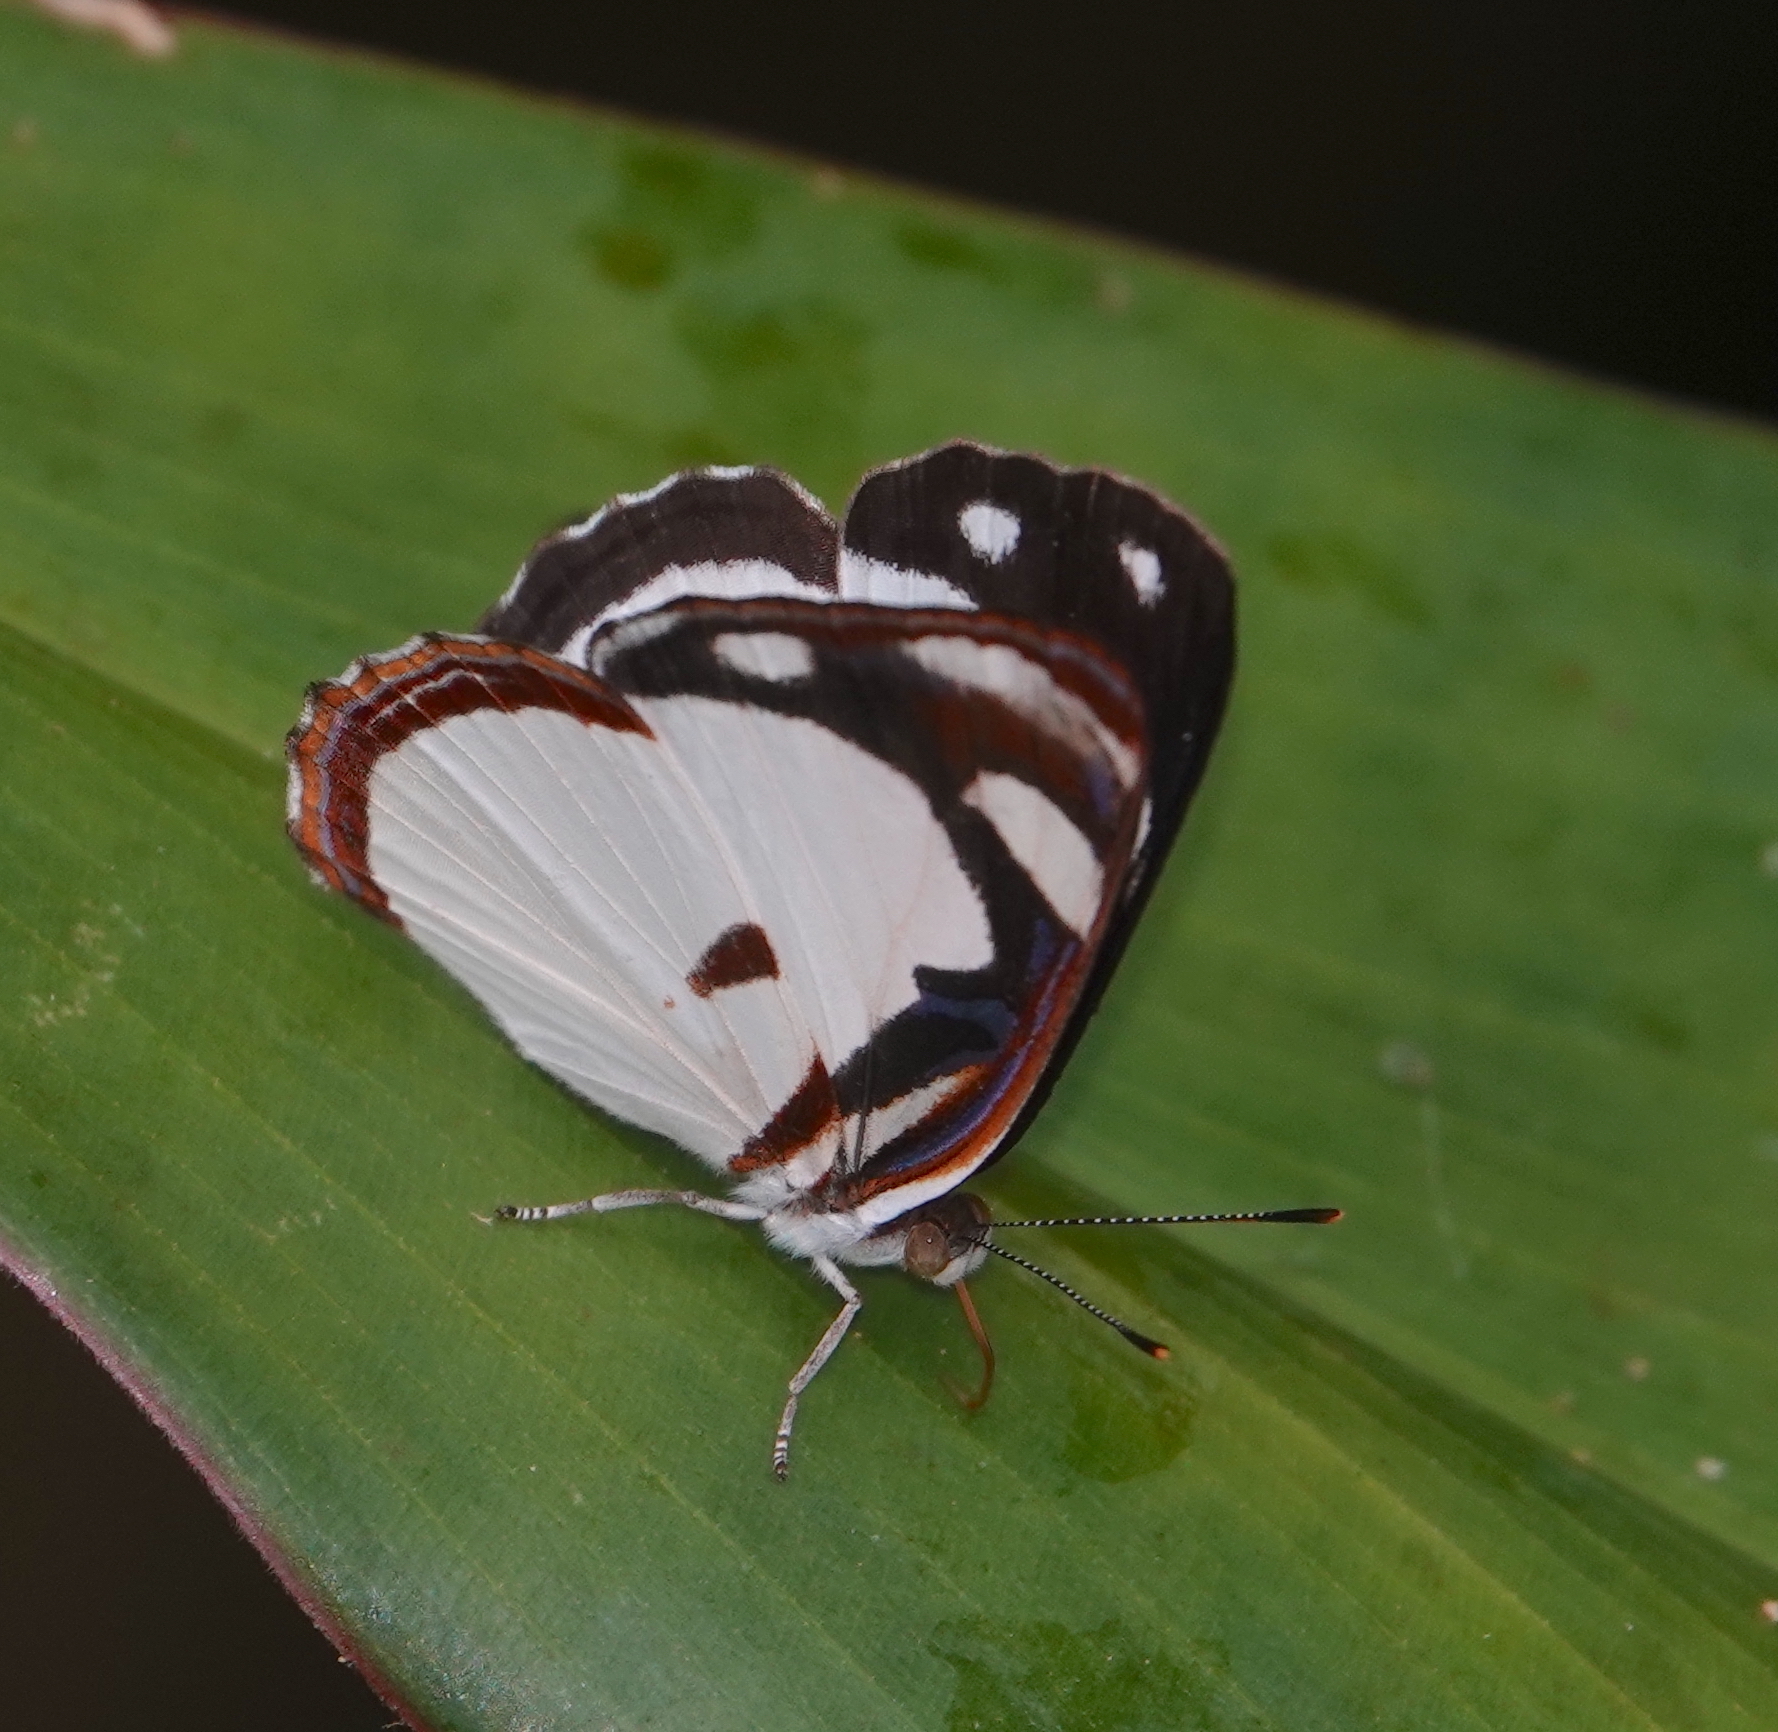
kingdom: Animalia
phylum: Arthropoda
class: Insecta
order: Lepidoptera
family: Nymphalidae
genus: Dynamine
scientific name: Dynamine athemon
